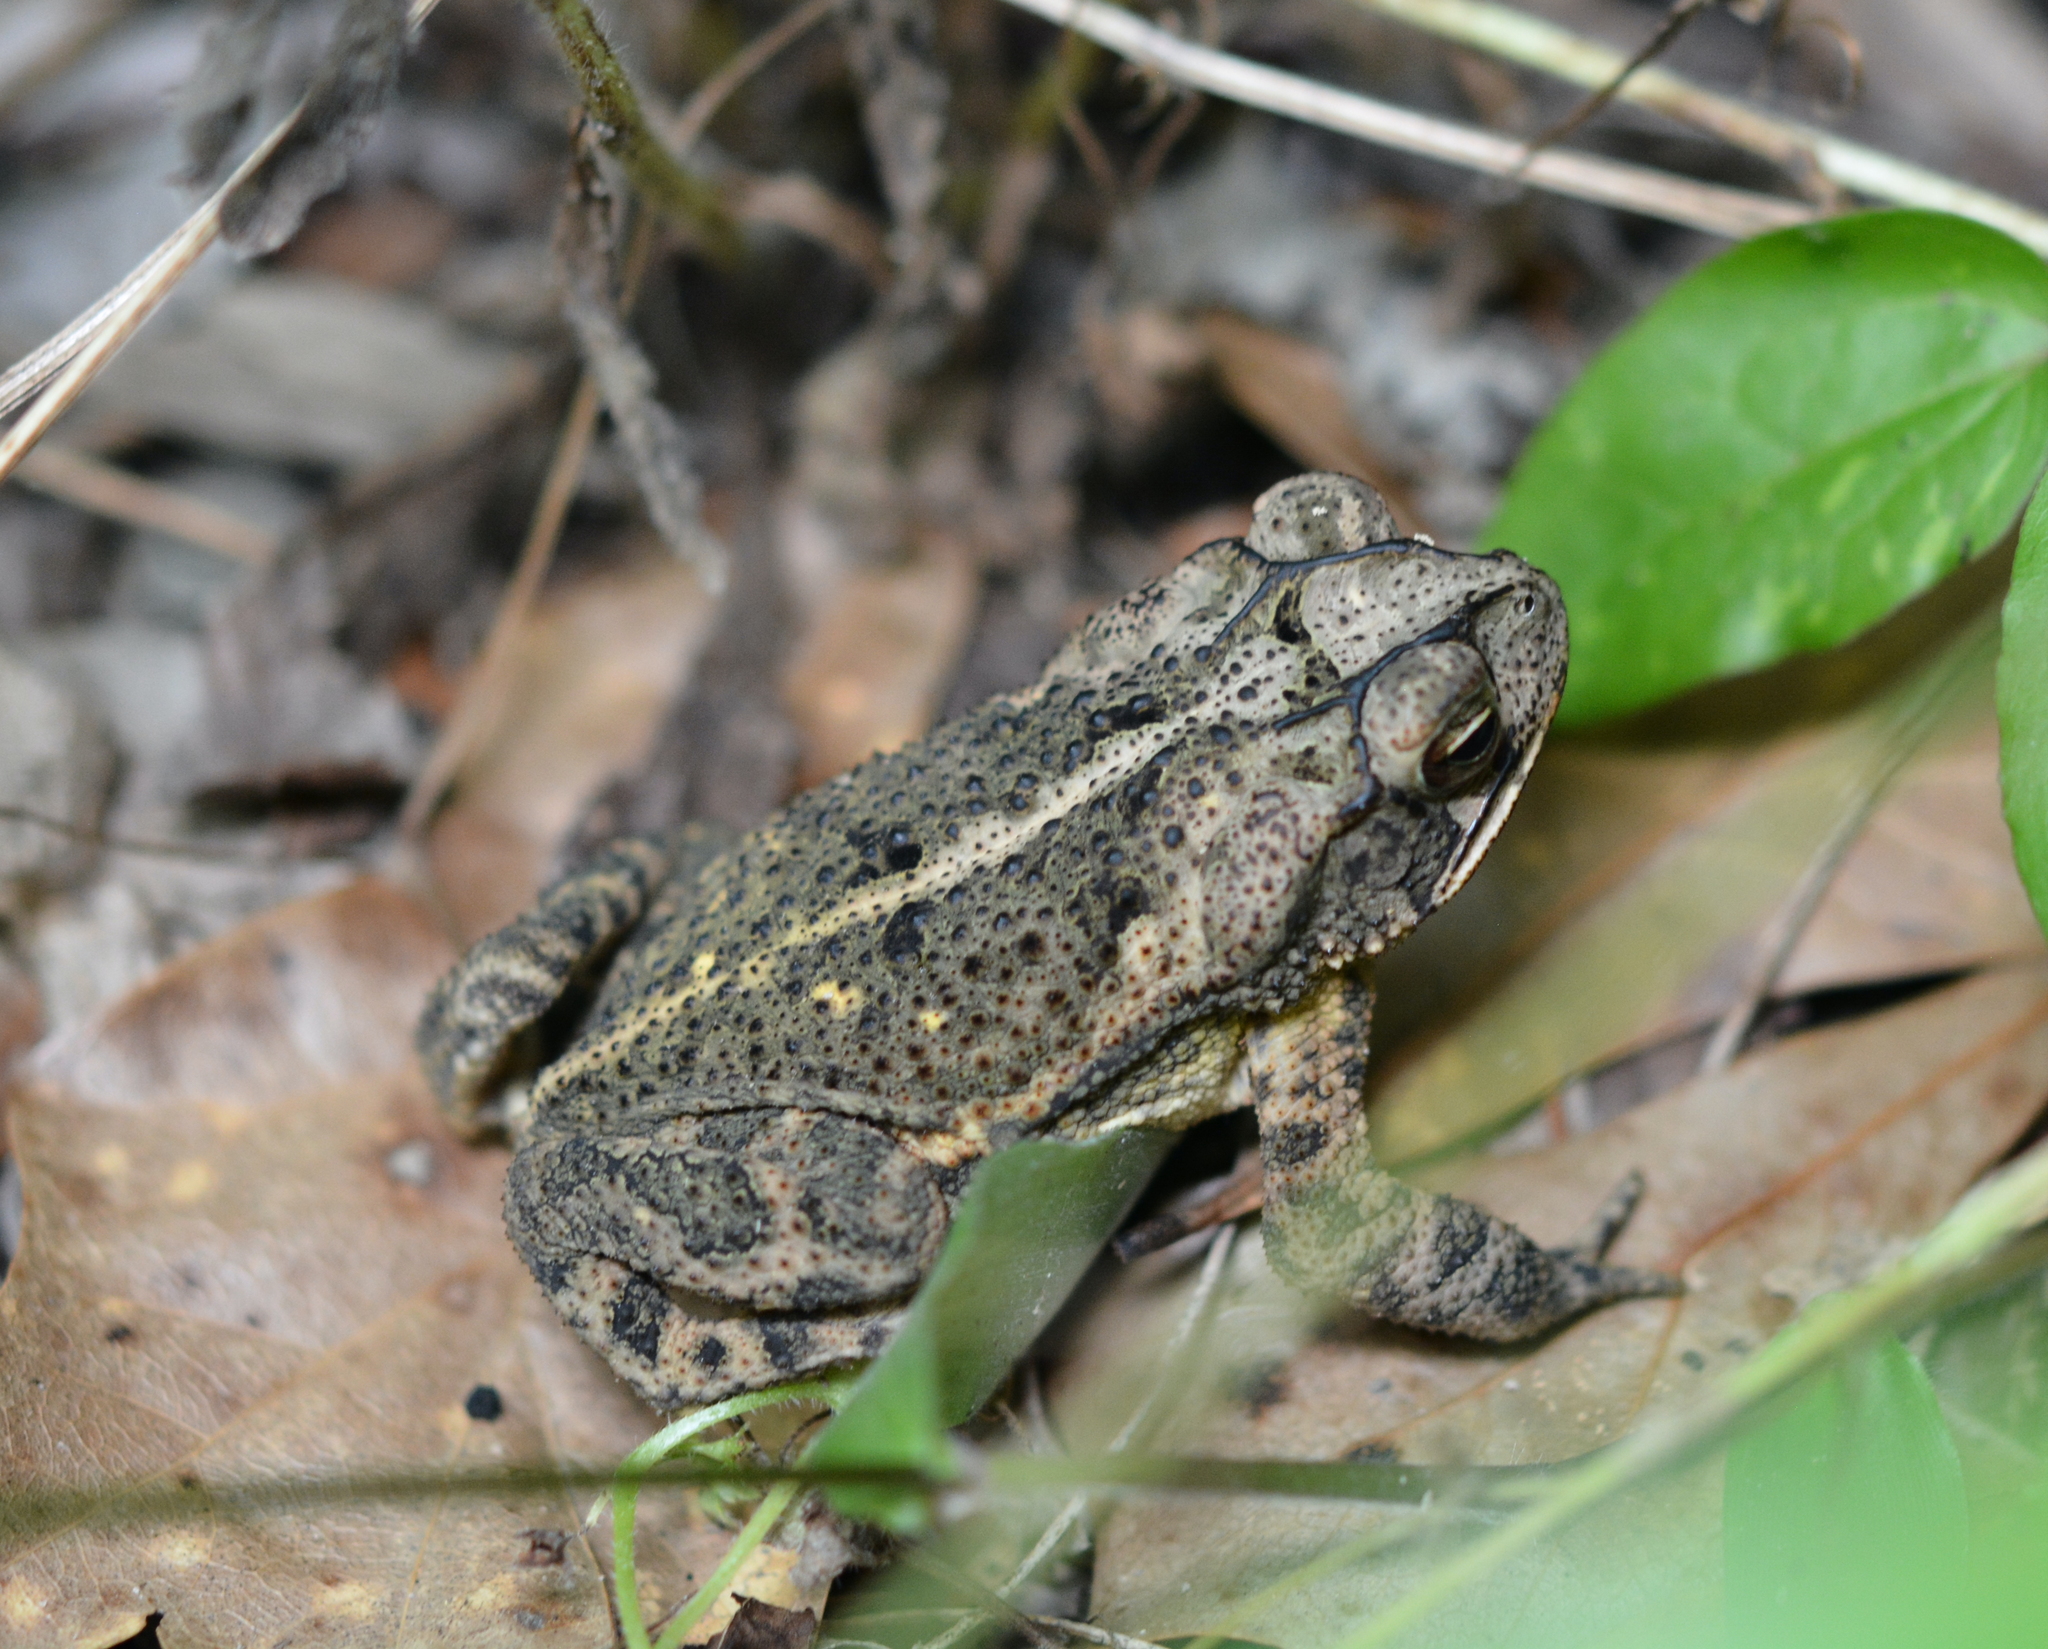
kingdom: Animalia
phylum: Chordata
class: Amphibia
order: Anura
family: Bufonidae
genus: Incilius
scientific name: Incilius nebulifer
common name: Gulf coast toad
